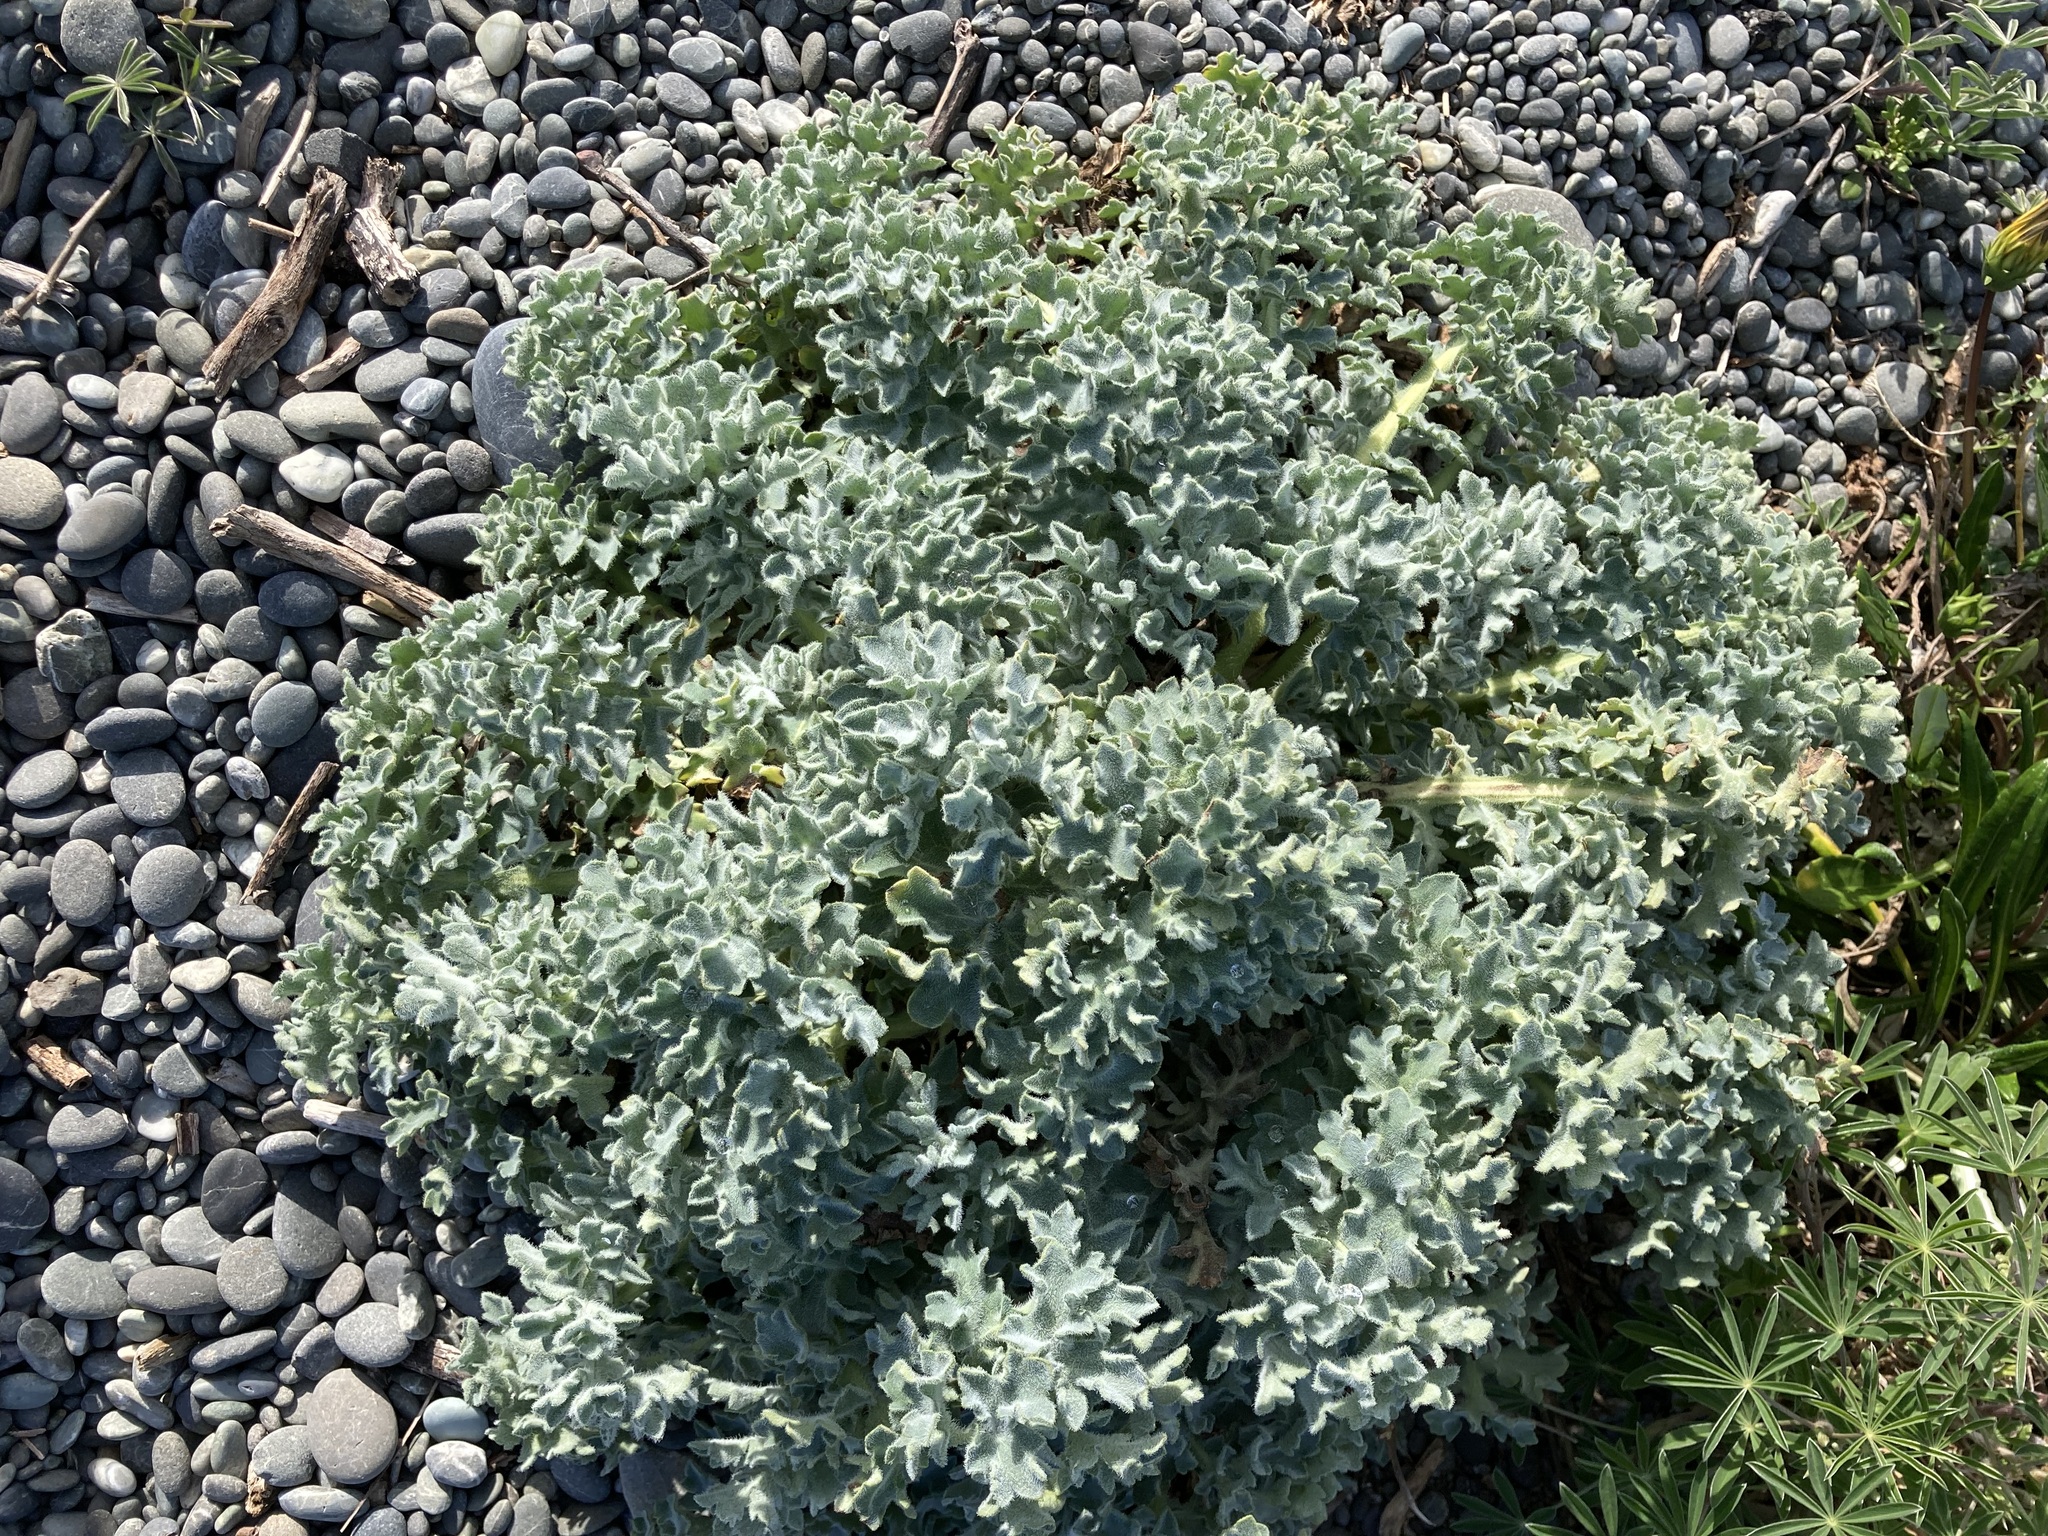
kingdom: Plantae
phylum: Tracheophyta
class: Magnoliopsida
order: Ranunculales
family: Papaveraceae
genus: Glaucium
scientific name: Glaucium flavum
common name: Yellow horned-poppy
